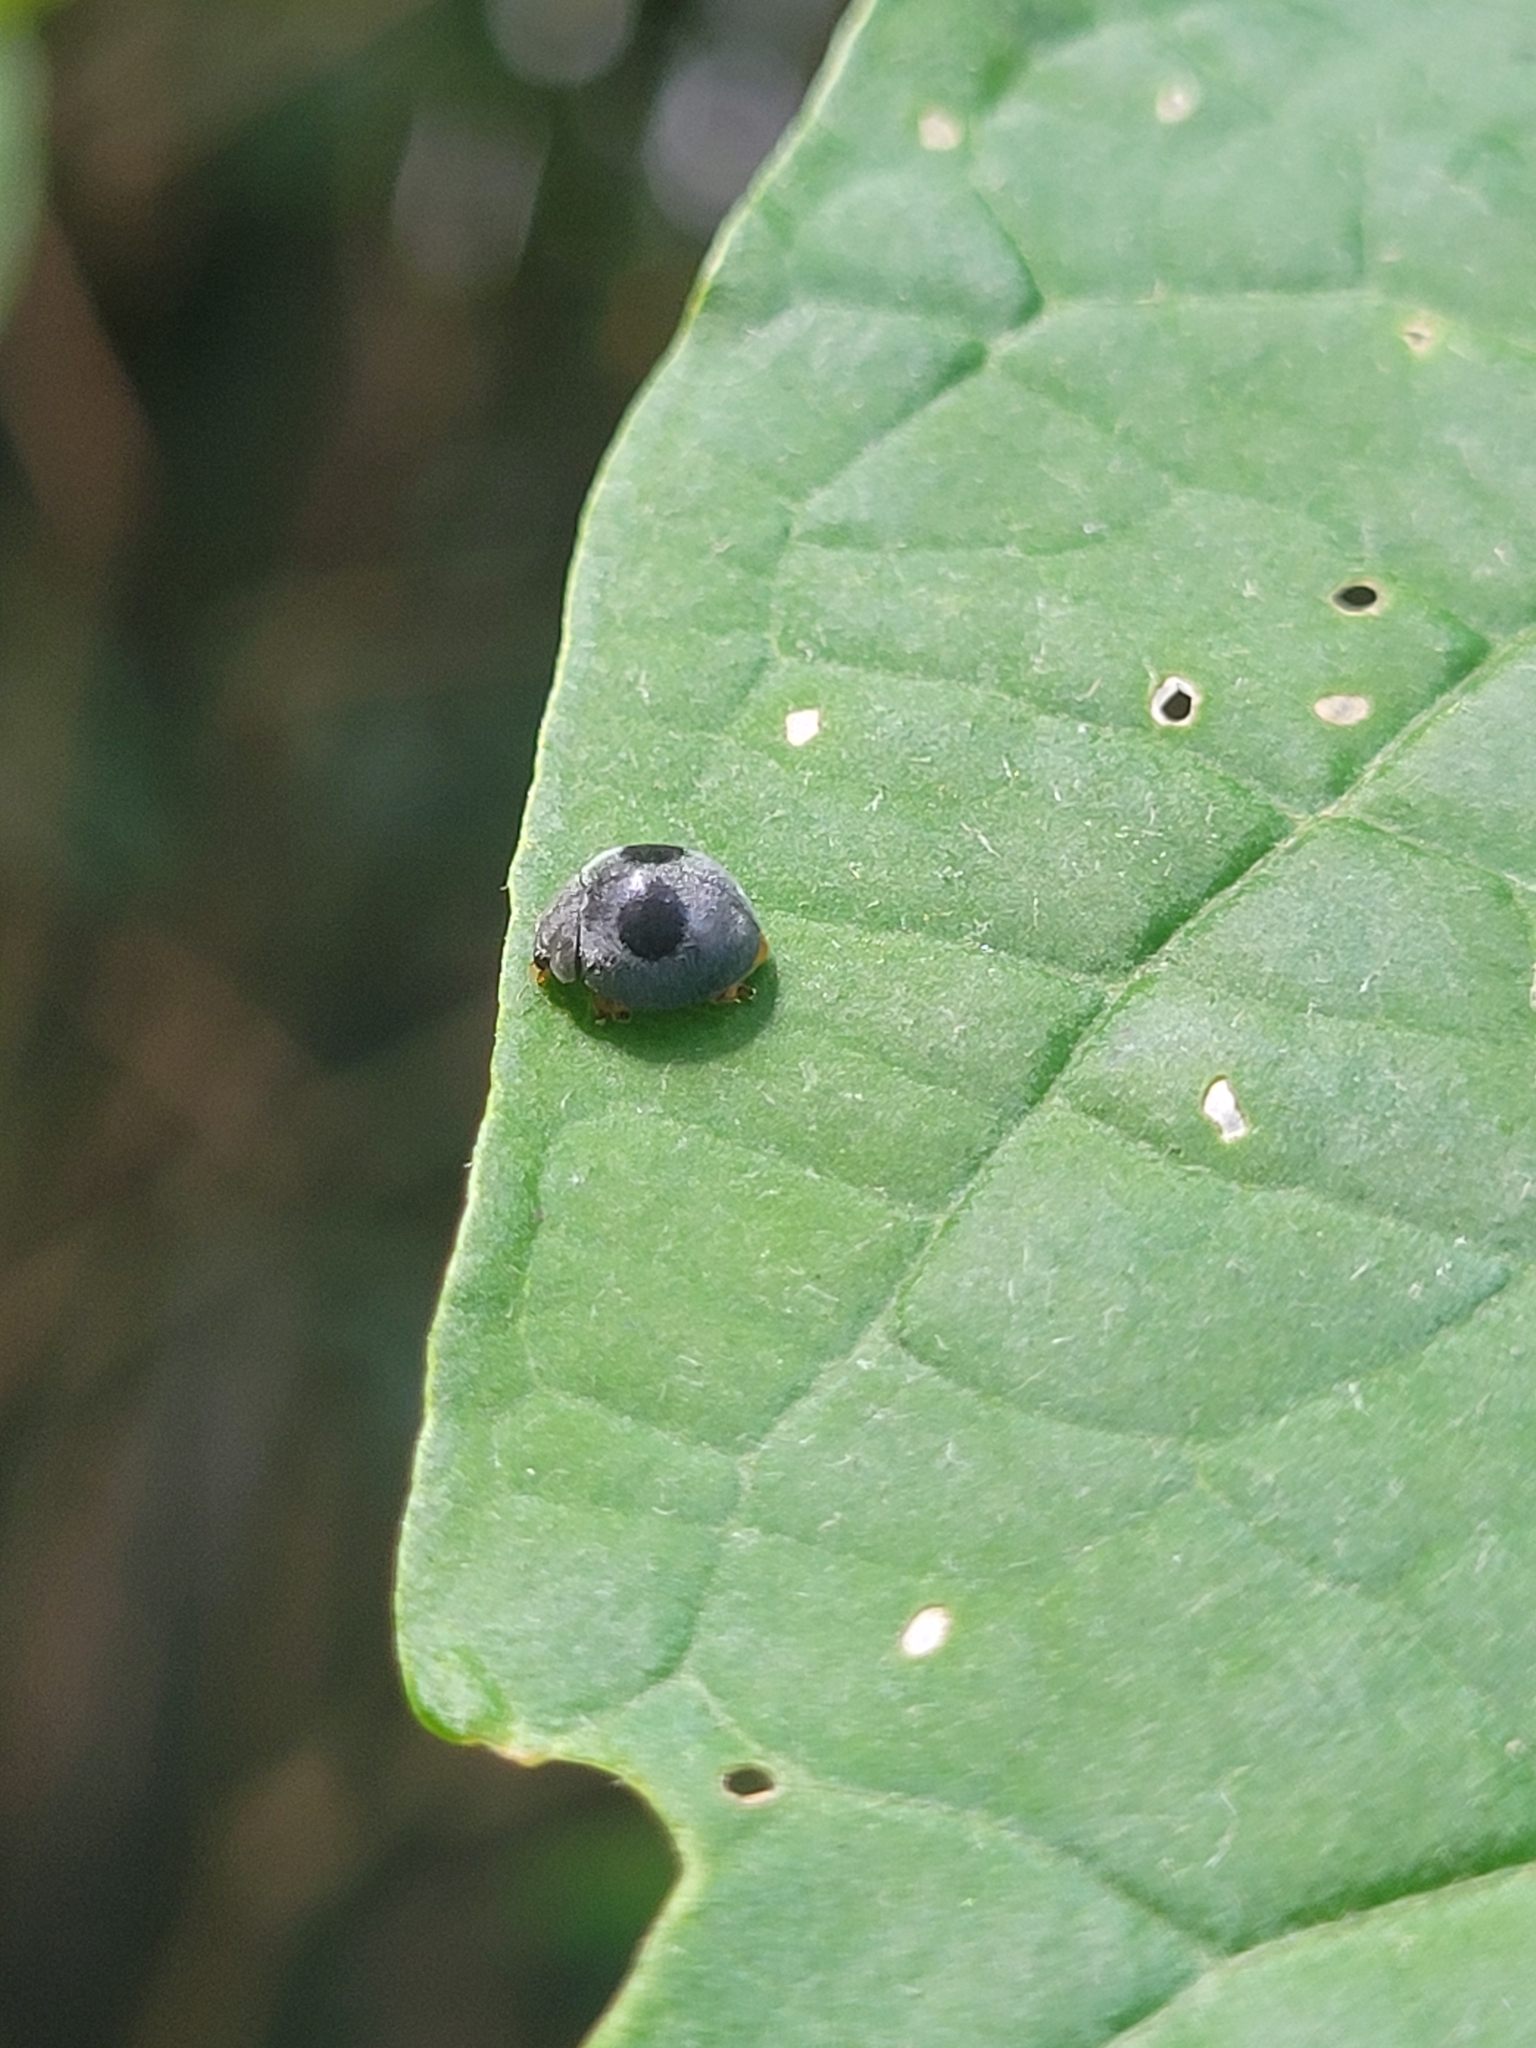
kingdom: Animalia
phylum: Arthropoda
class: Insecta
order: Coleoptera
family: Coccinellidae
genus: Azya
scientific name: Azya orbigera
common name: Ladybird beetle
